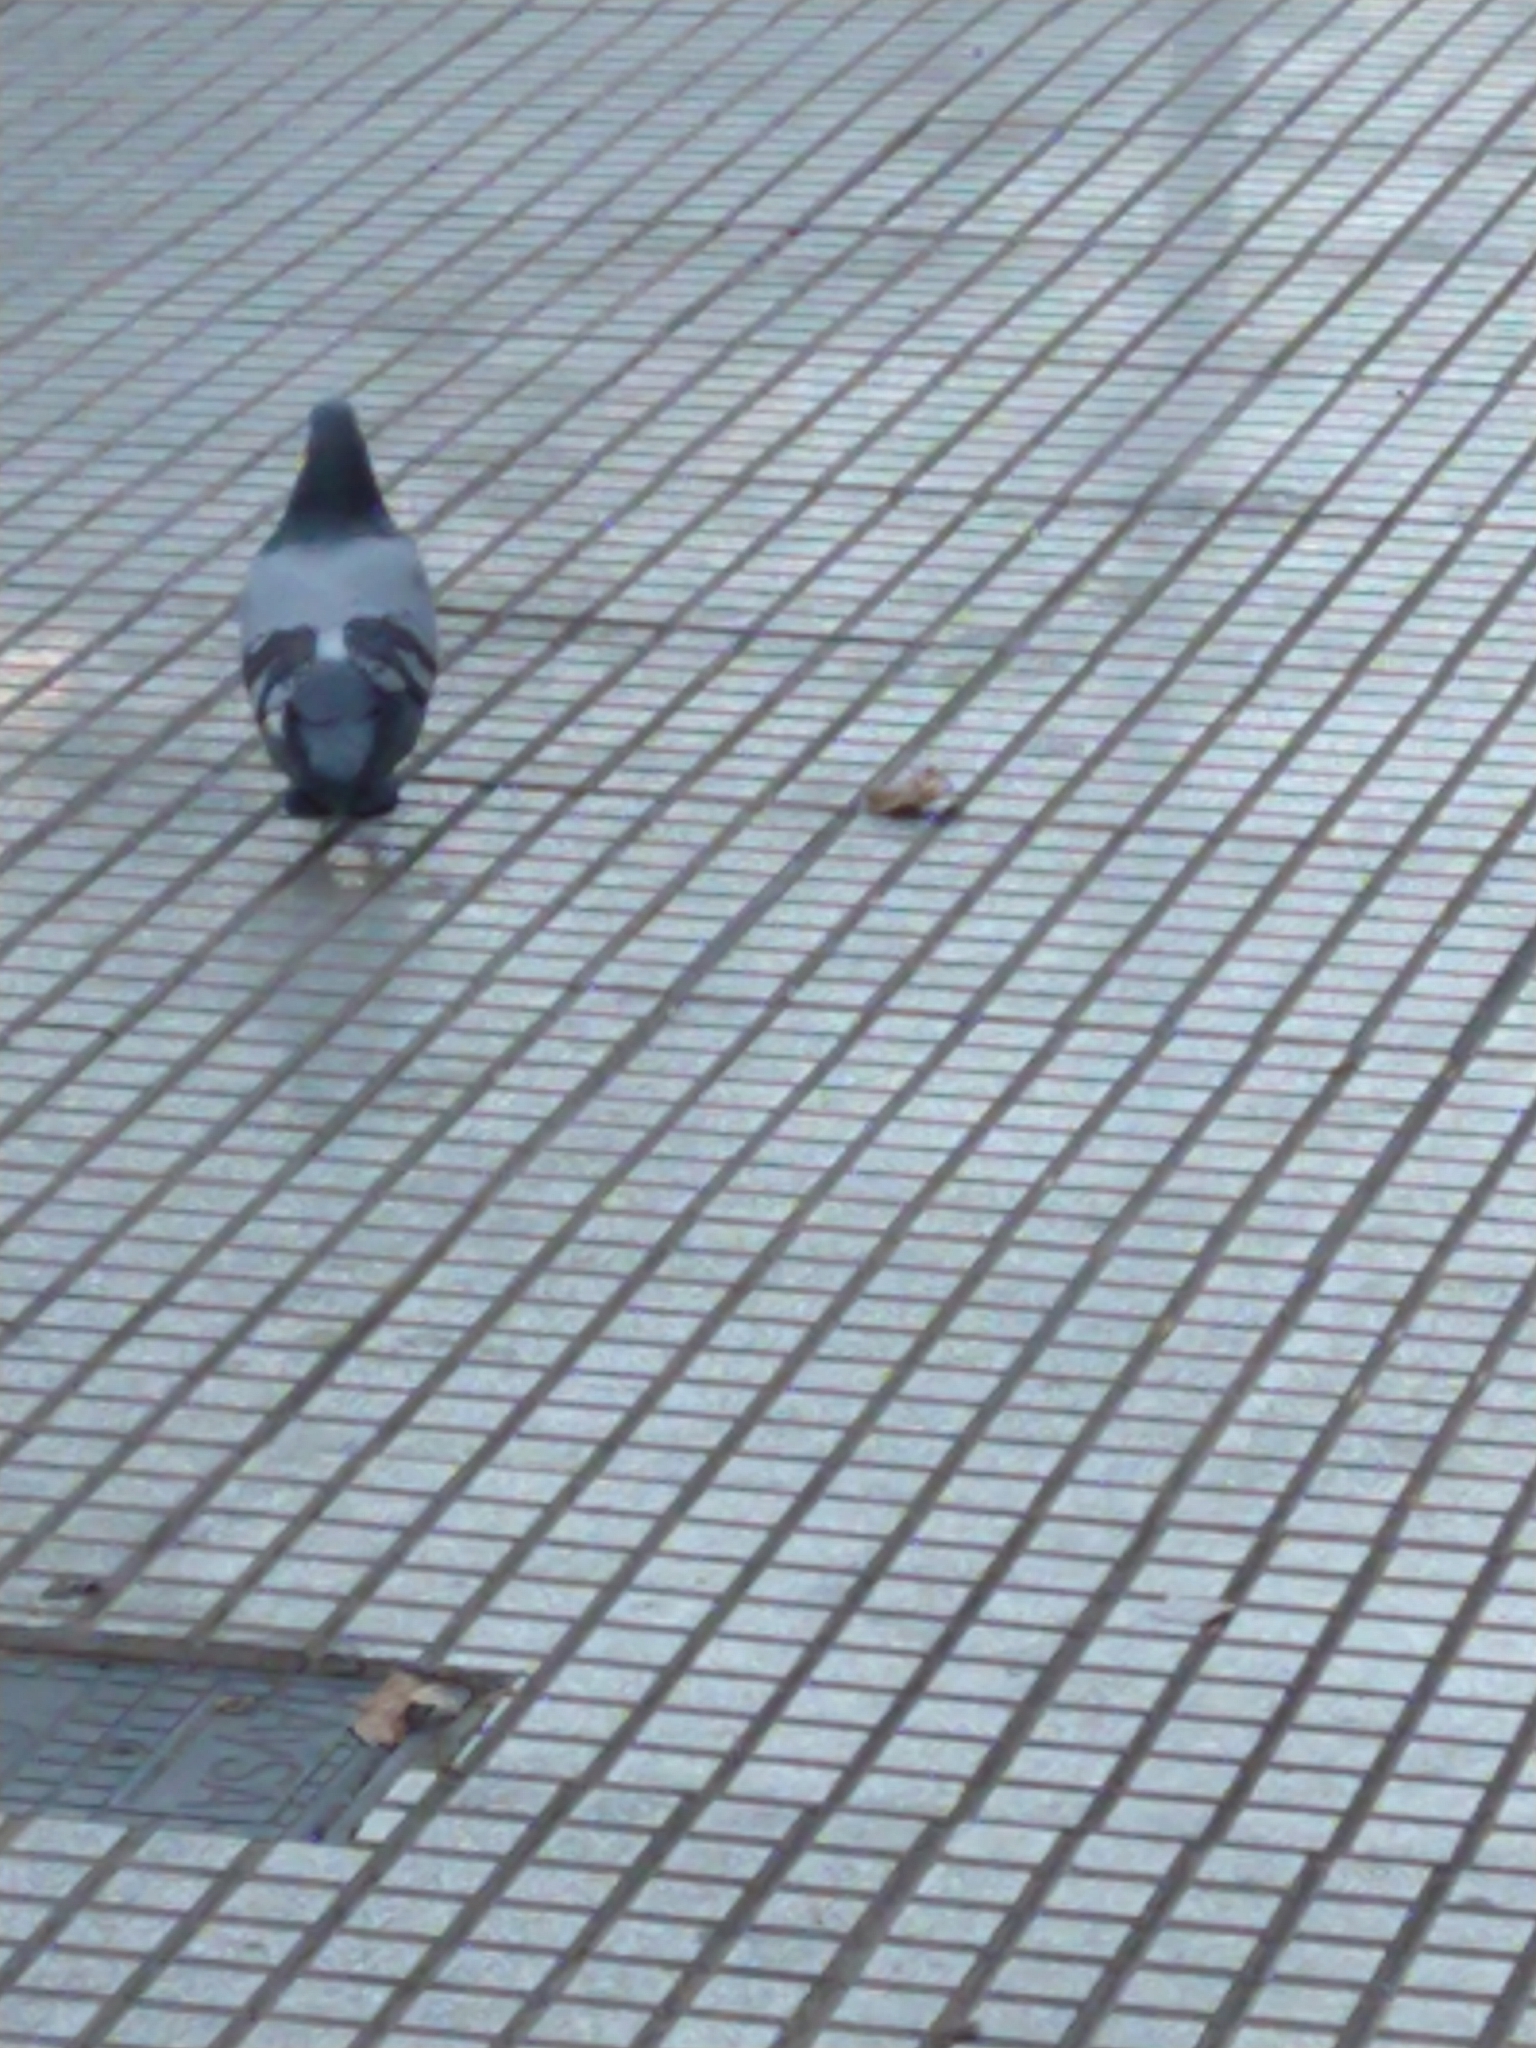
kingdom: Animalia
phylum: Chordata
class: Aves
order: Columbiformes
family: Columbidae
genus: Columba
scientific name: Columba livia
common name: Rock pigeon
